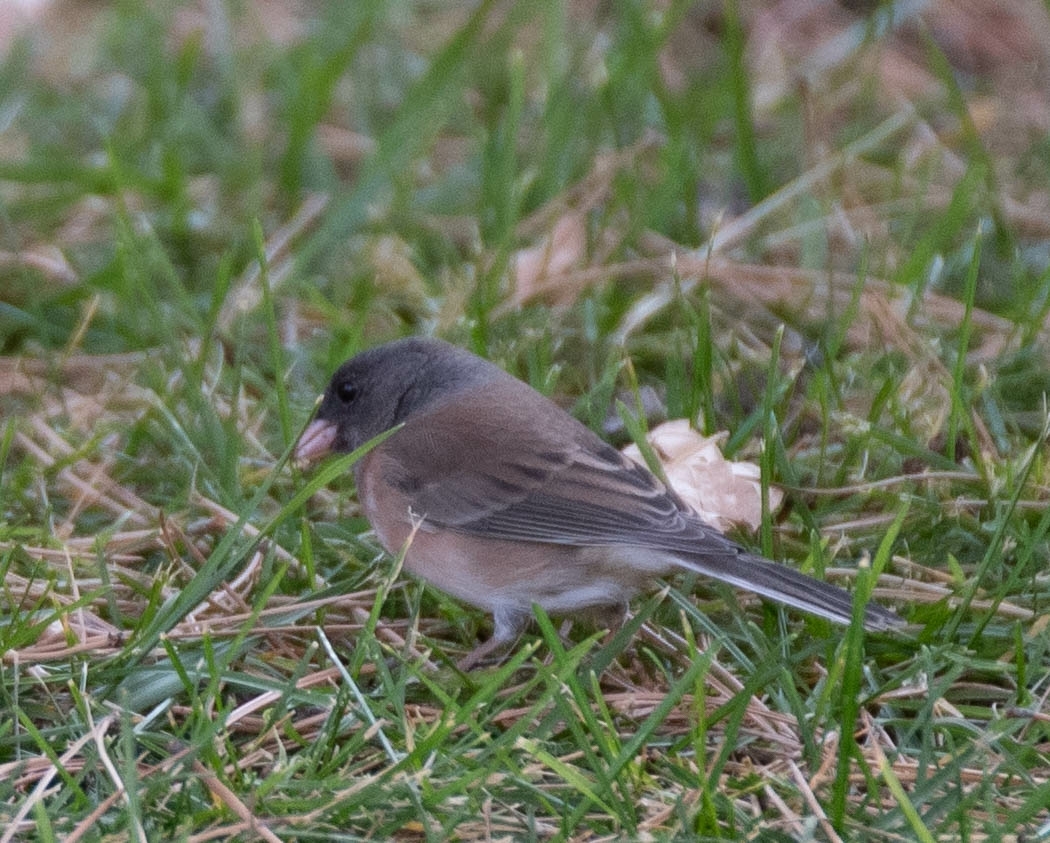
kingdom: Animalia
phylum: Chordata
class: Aves
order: Passeriformes
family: Passerellidae
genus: Junco
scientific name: Junco hyemalis
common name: Dark-eyed junco
